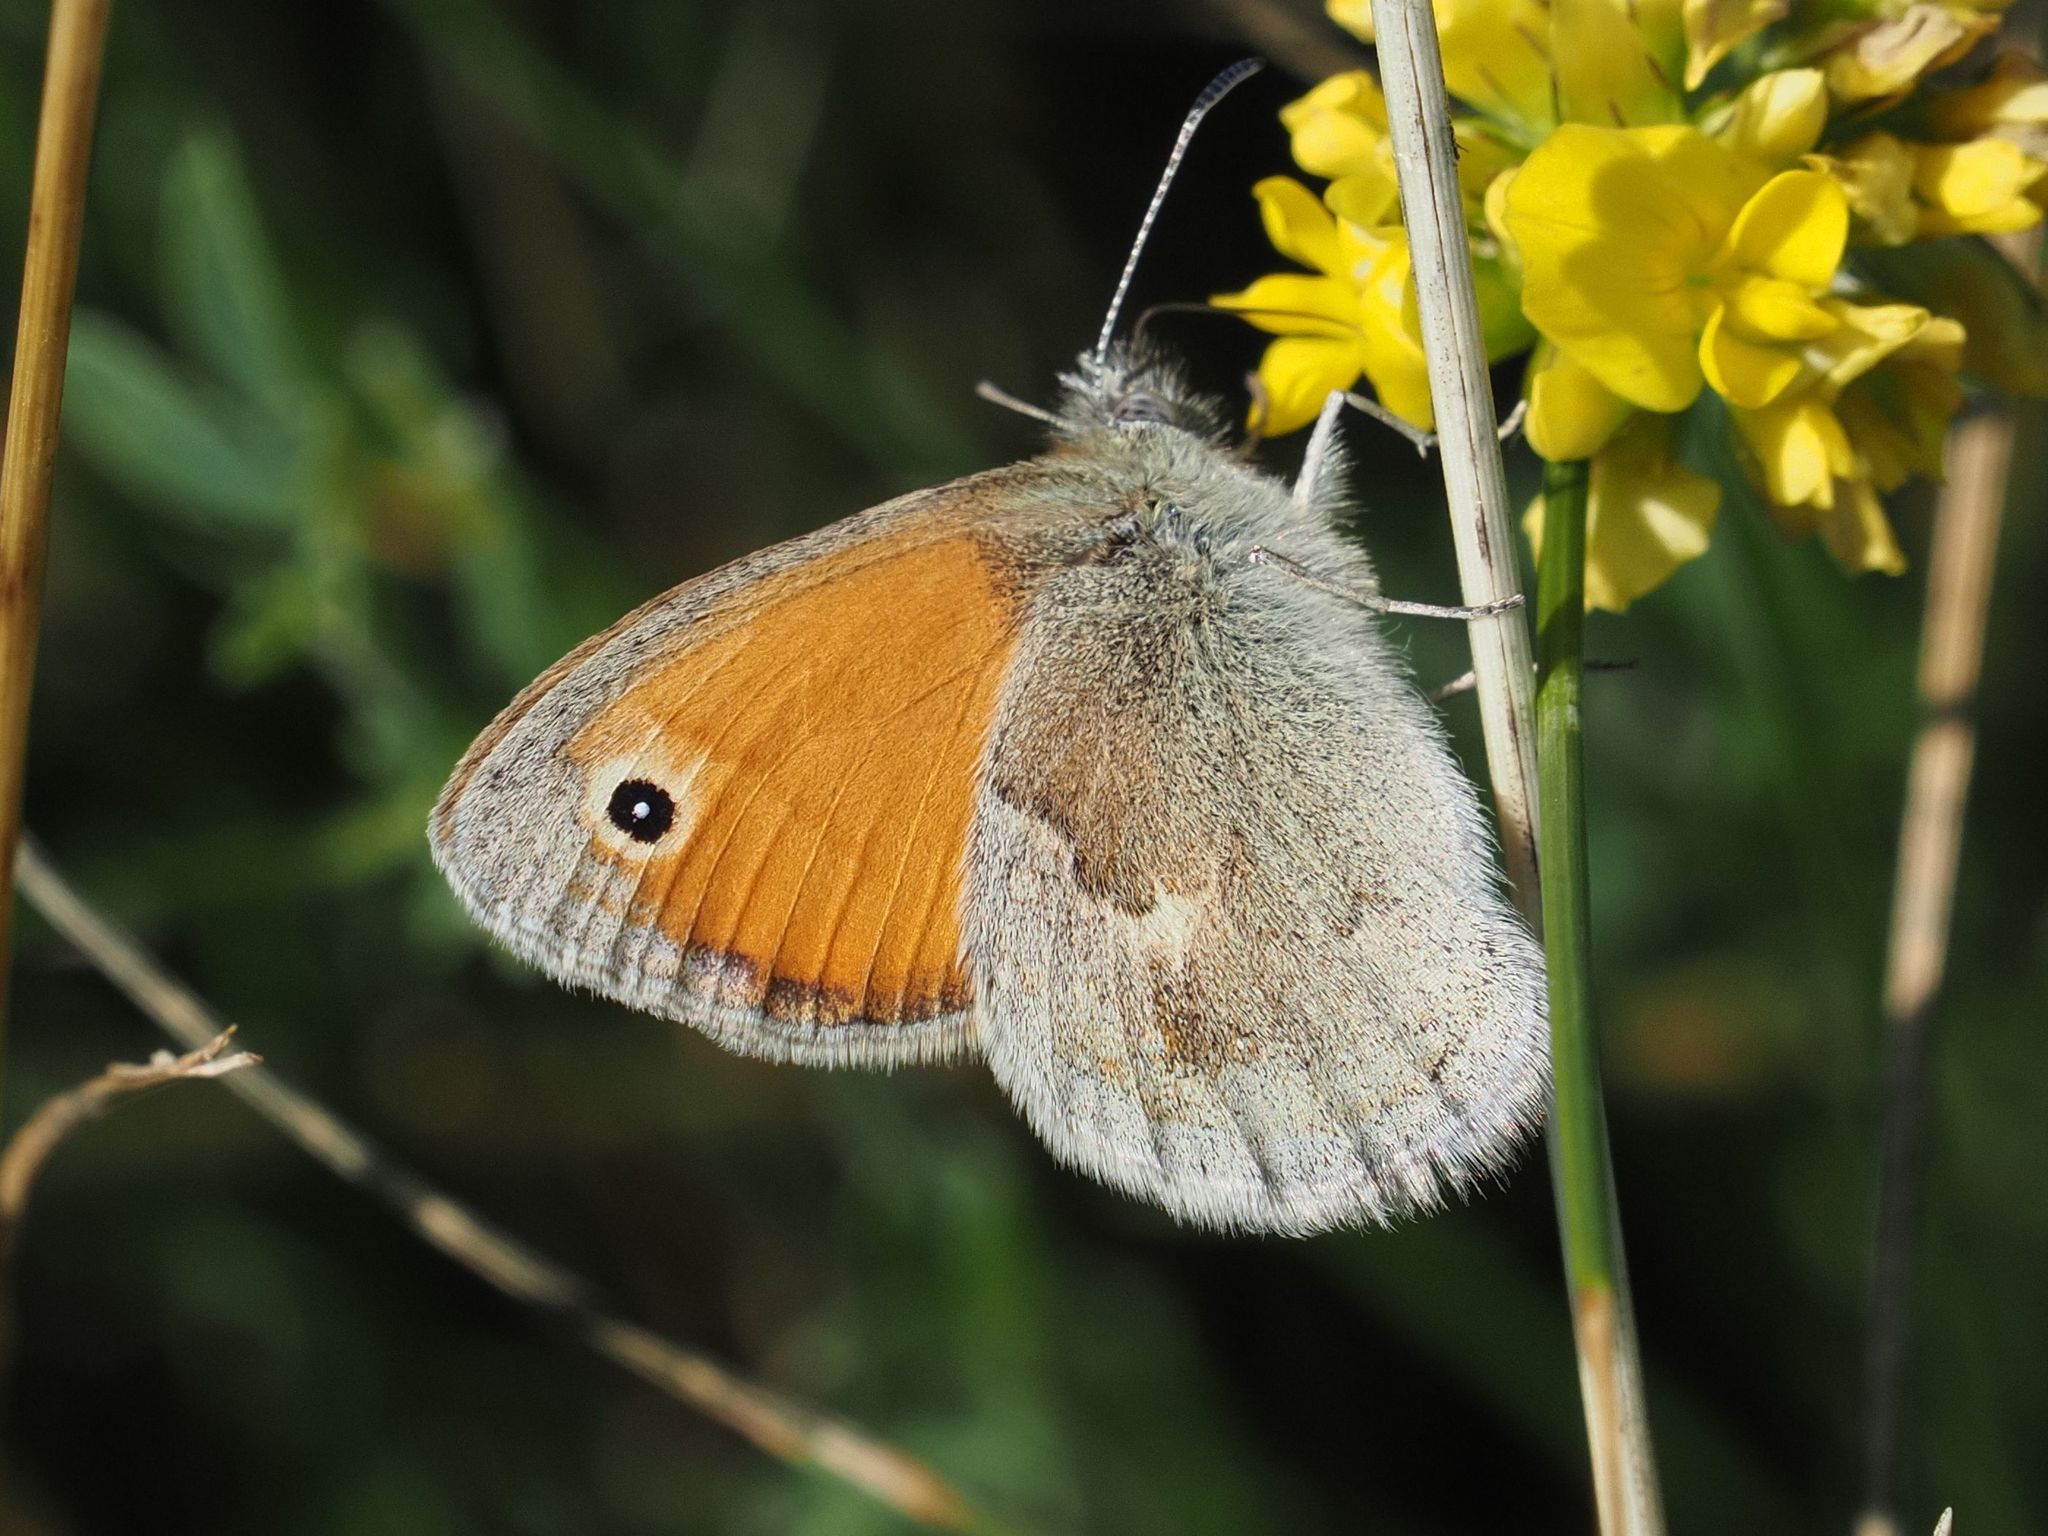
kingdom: Animalia
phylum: Arthropoda
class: Insecta
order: Lepidoptera
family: Nymphalidae
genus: Coenonympha
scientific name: Coenonympha pamphilus
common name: Small heath
